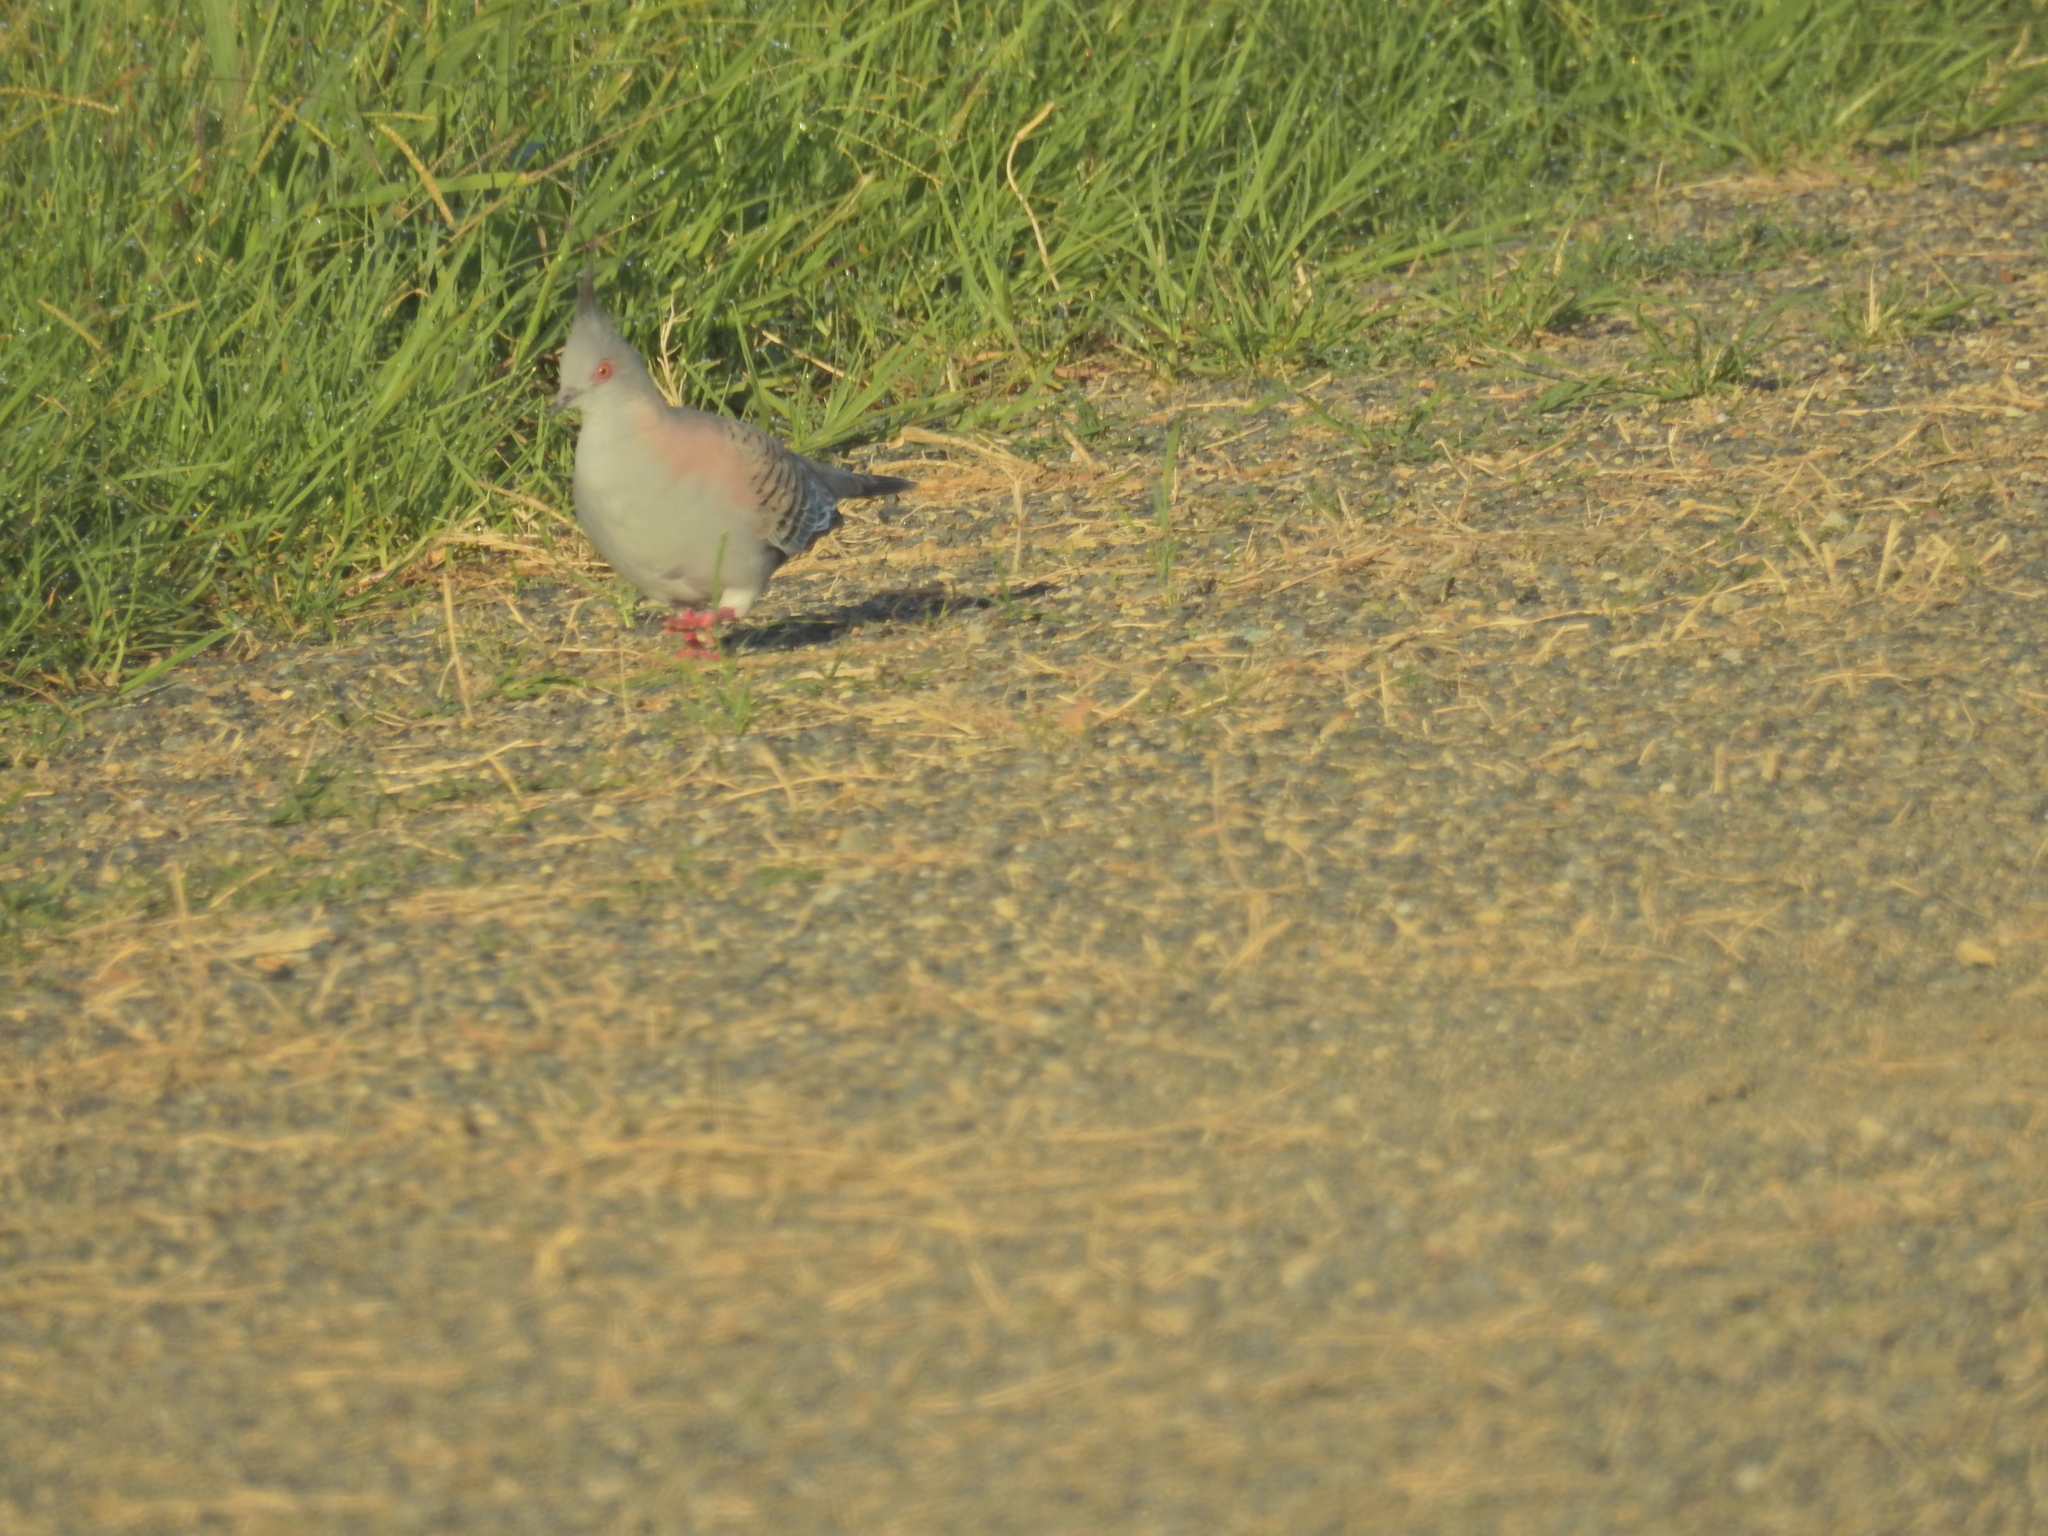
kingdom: Animalia
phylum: Chordata
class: Aves
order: Columbiformes
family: Columbidae
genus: Ocyphaps
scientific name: Ocyphaps lophotes
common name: Crested pigeon
